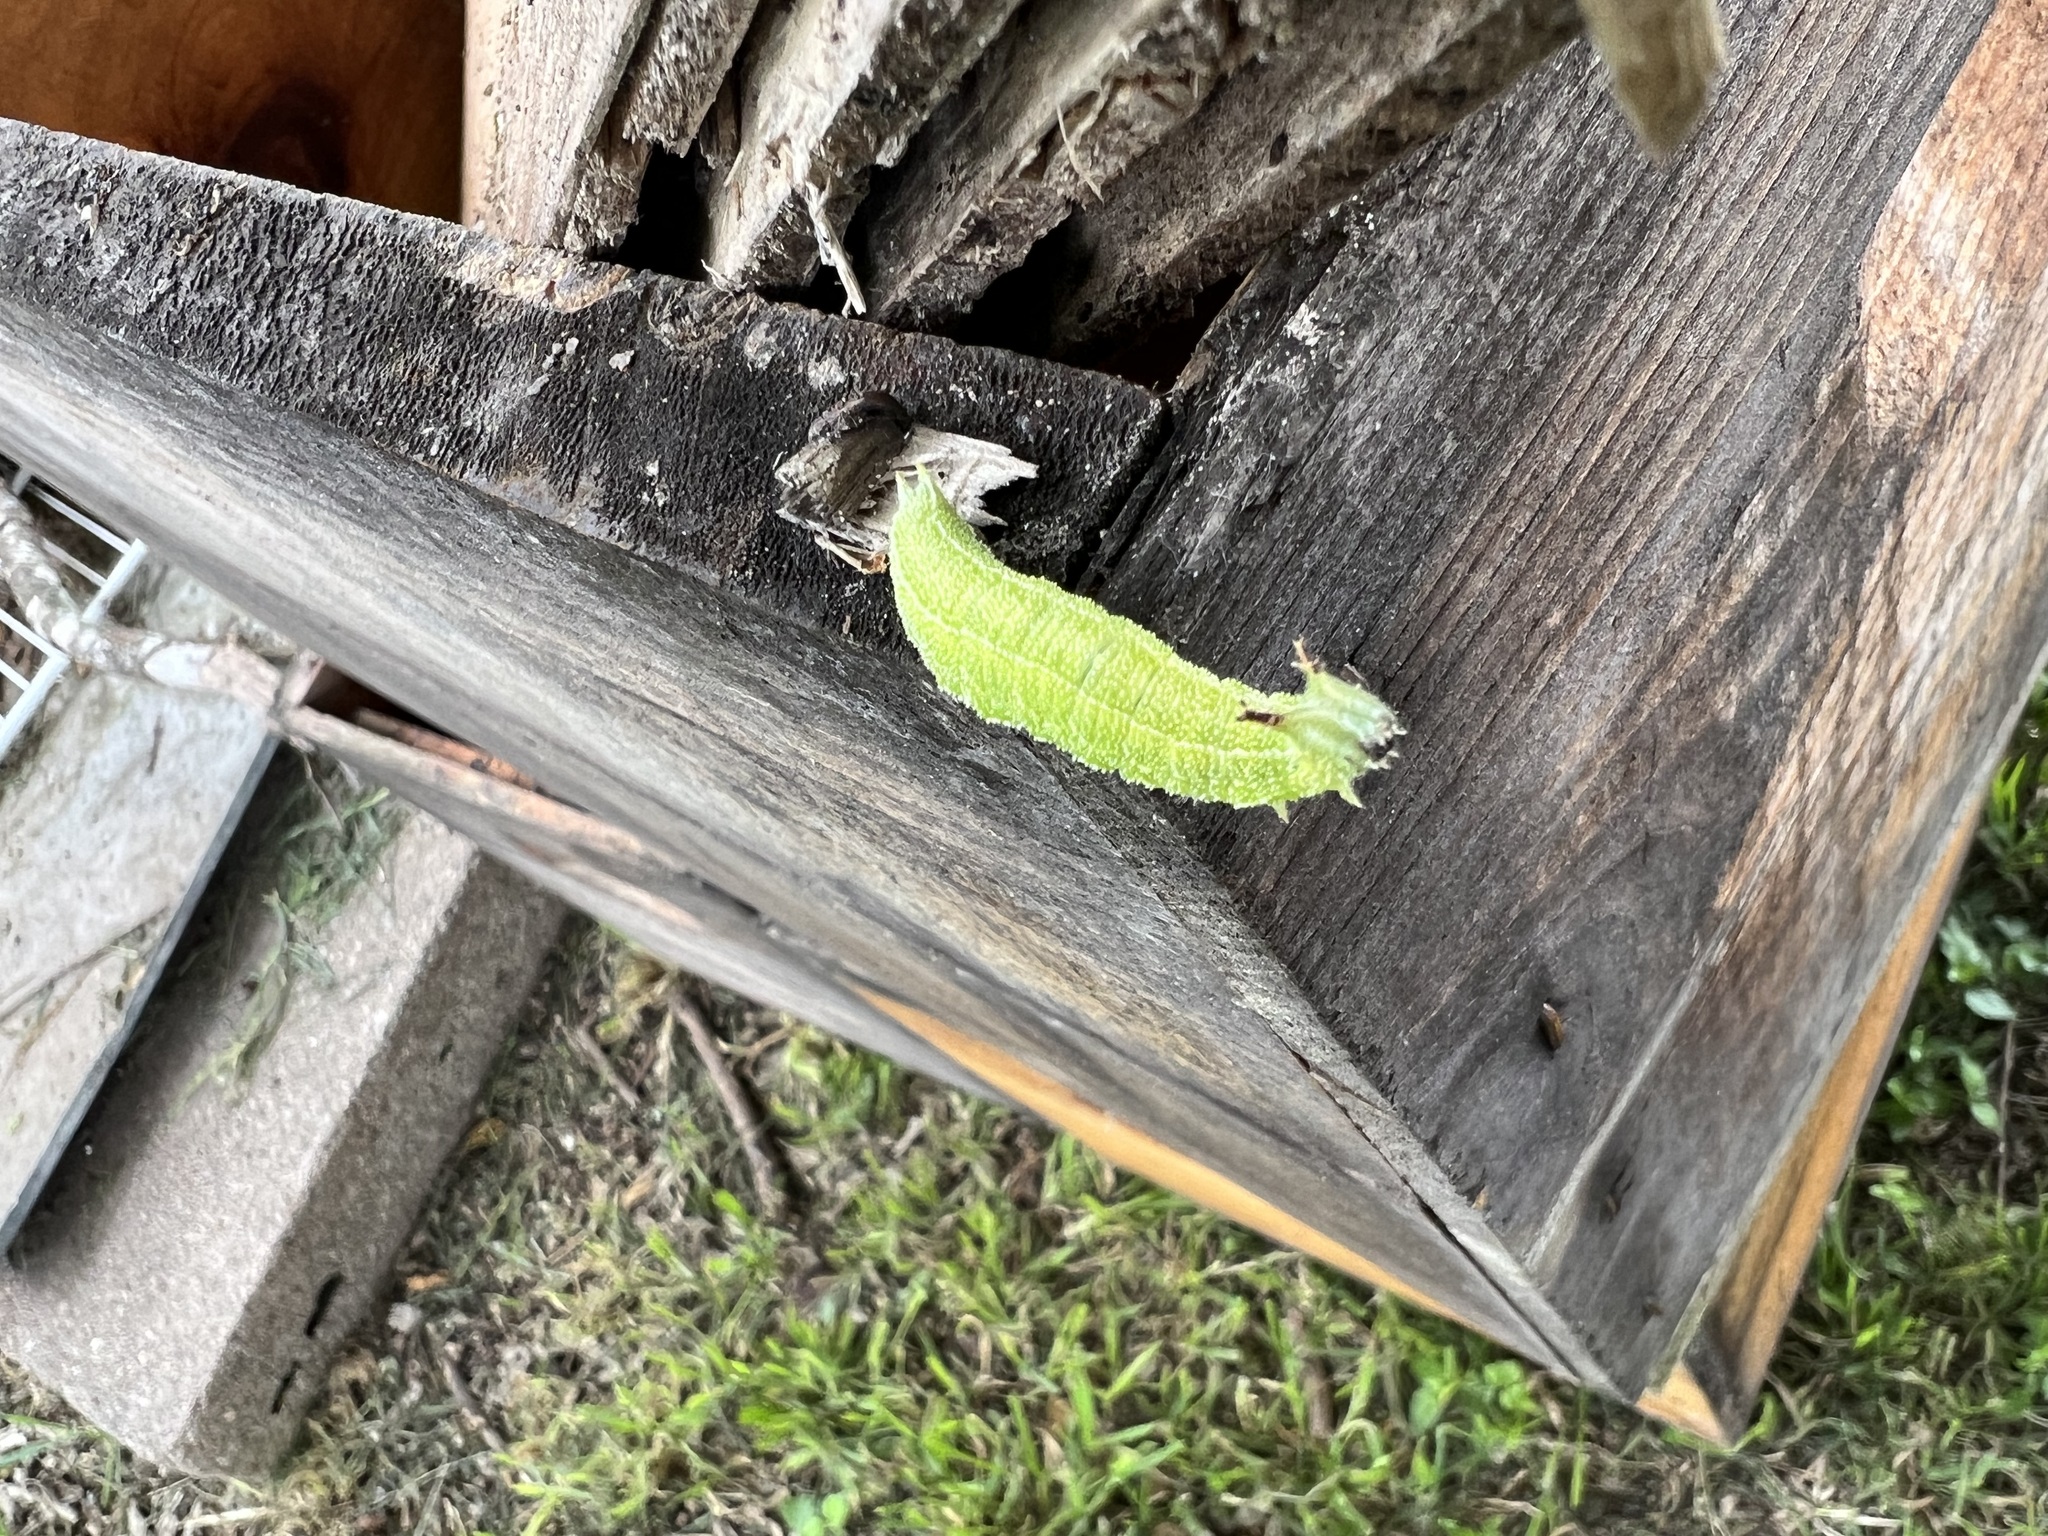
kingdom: Animalia
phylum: Arthropoda
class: Insecta
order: Lepidoptera
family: Nymphalidae
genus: Asterocampa
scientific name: Asterocampa celtis
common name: Hackberry emperor
